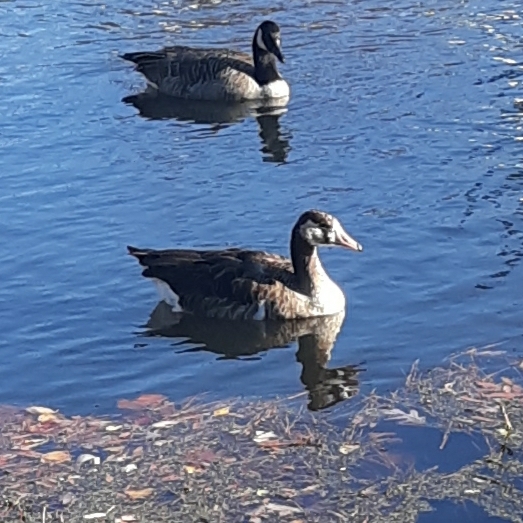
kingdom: Animalia
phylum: Chordata
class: Aves
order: Anseriformes
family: Anatidae
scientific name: Anatidae
